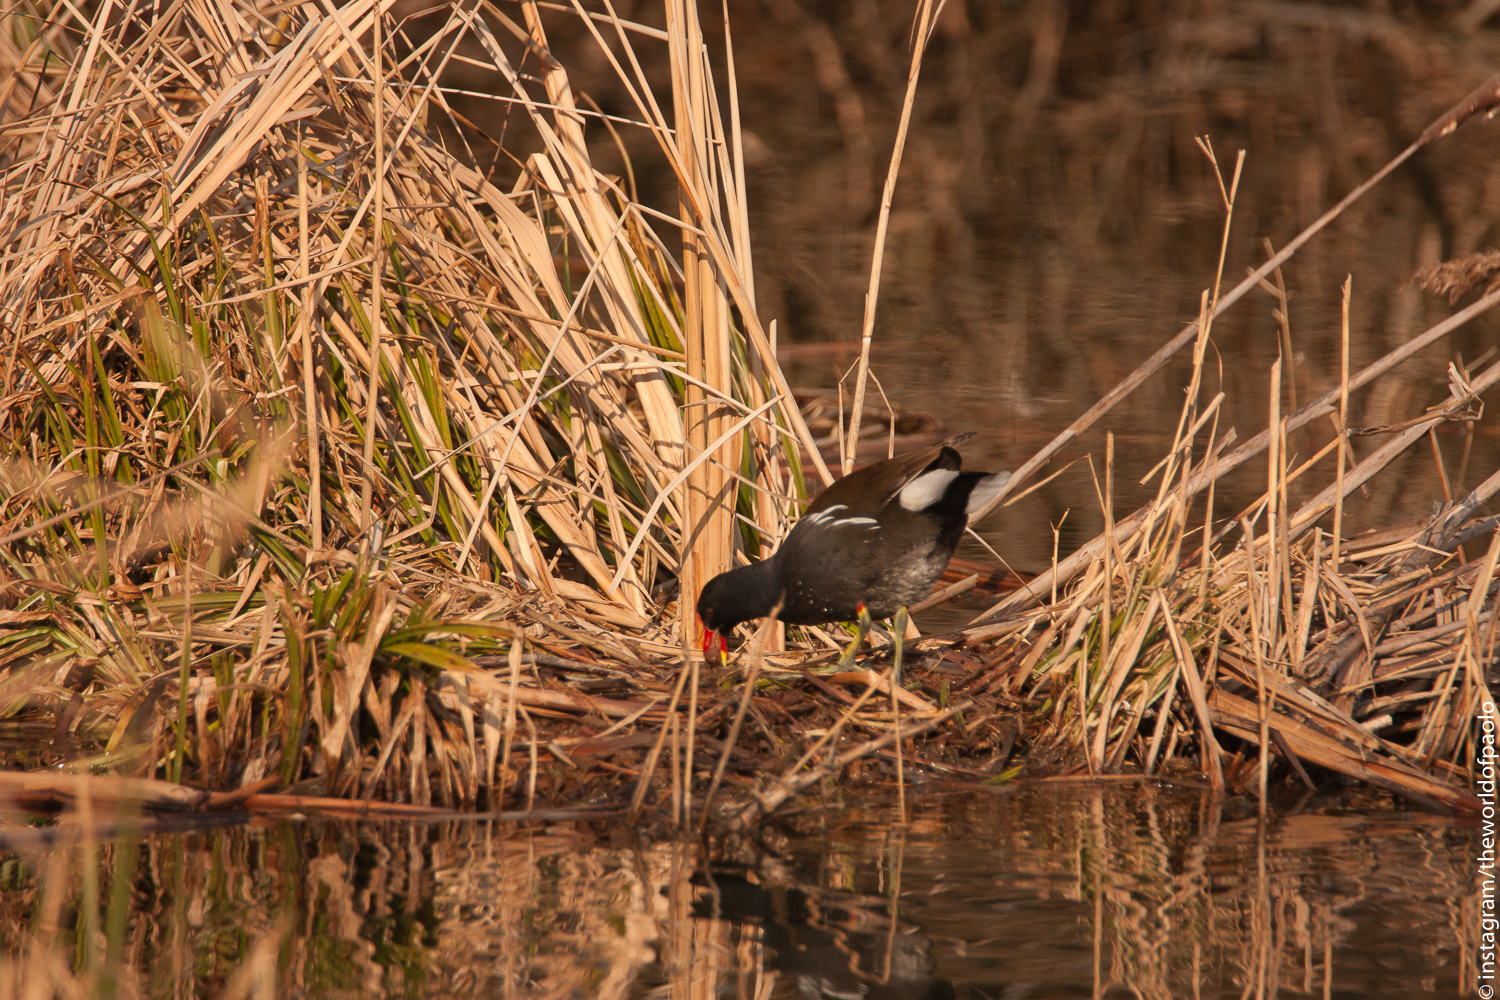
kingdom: Animalia
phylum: Chordata
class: Aves
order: Gruiformes
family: Rallidae
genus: Gallinula
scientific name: Gallinula chloropus
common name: Common moorhen
